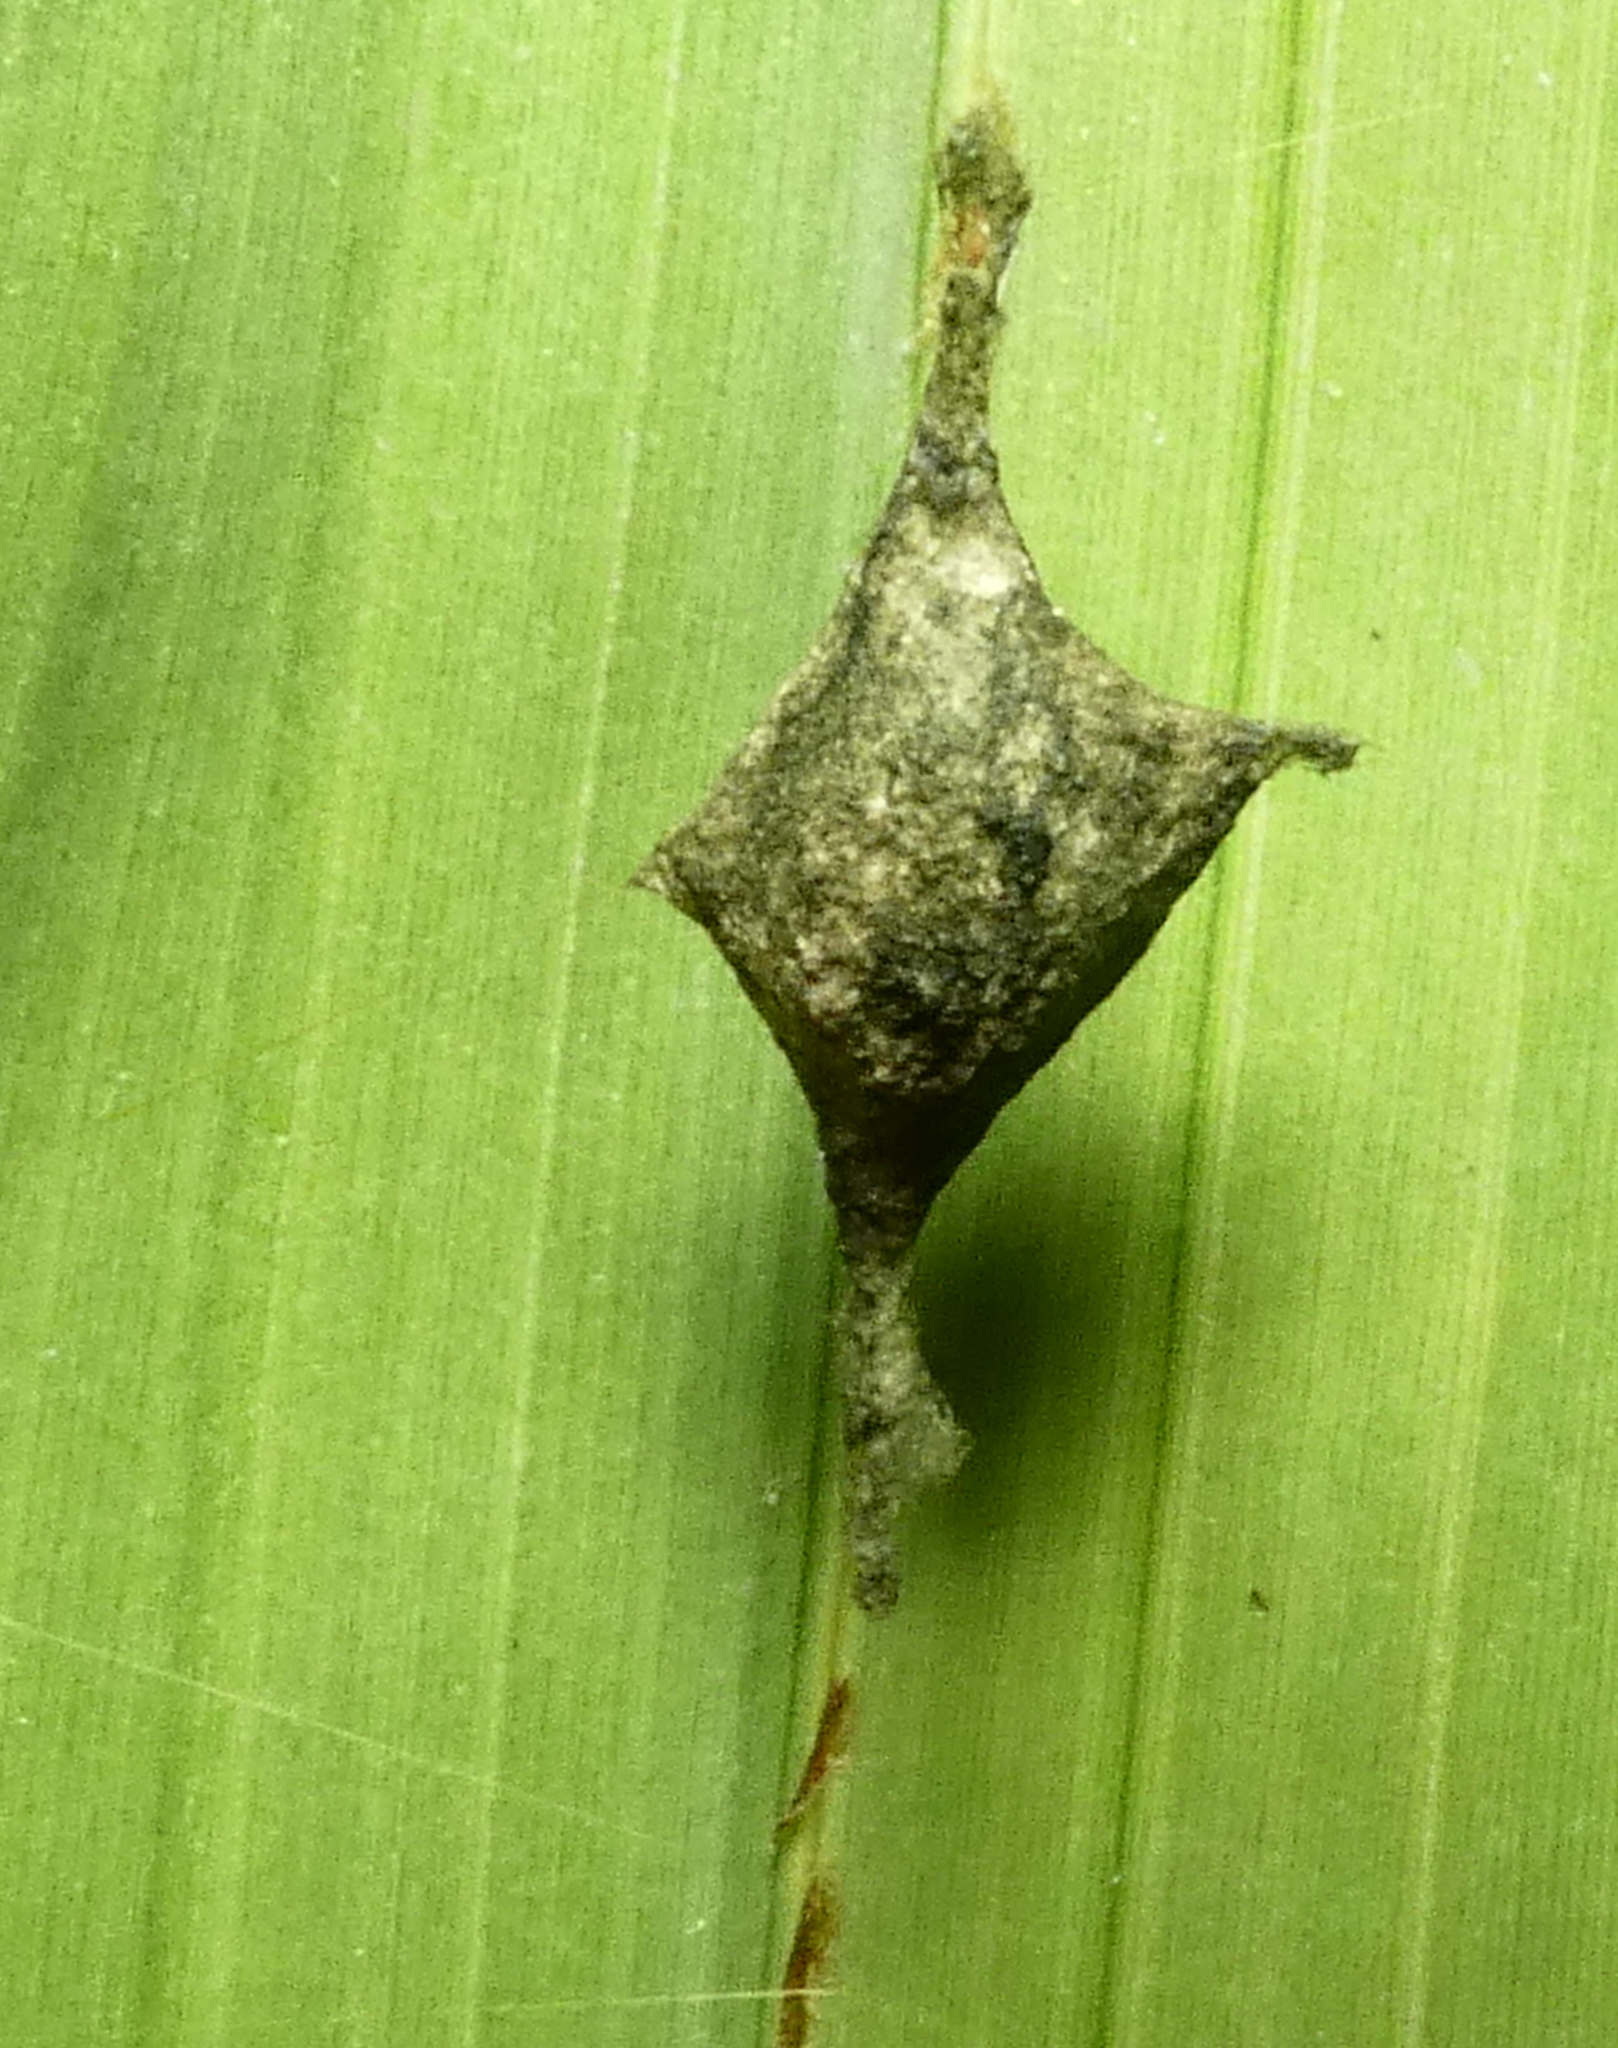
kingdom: Animalia
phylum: Arthropoda
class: Arachnida
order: Araneae
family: Araneidae
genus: Argiope
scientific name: Argiope argentata
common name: Orb weavers
